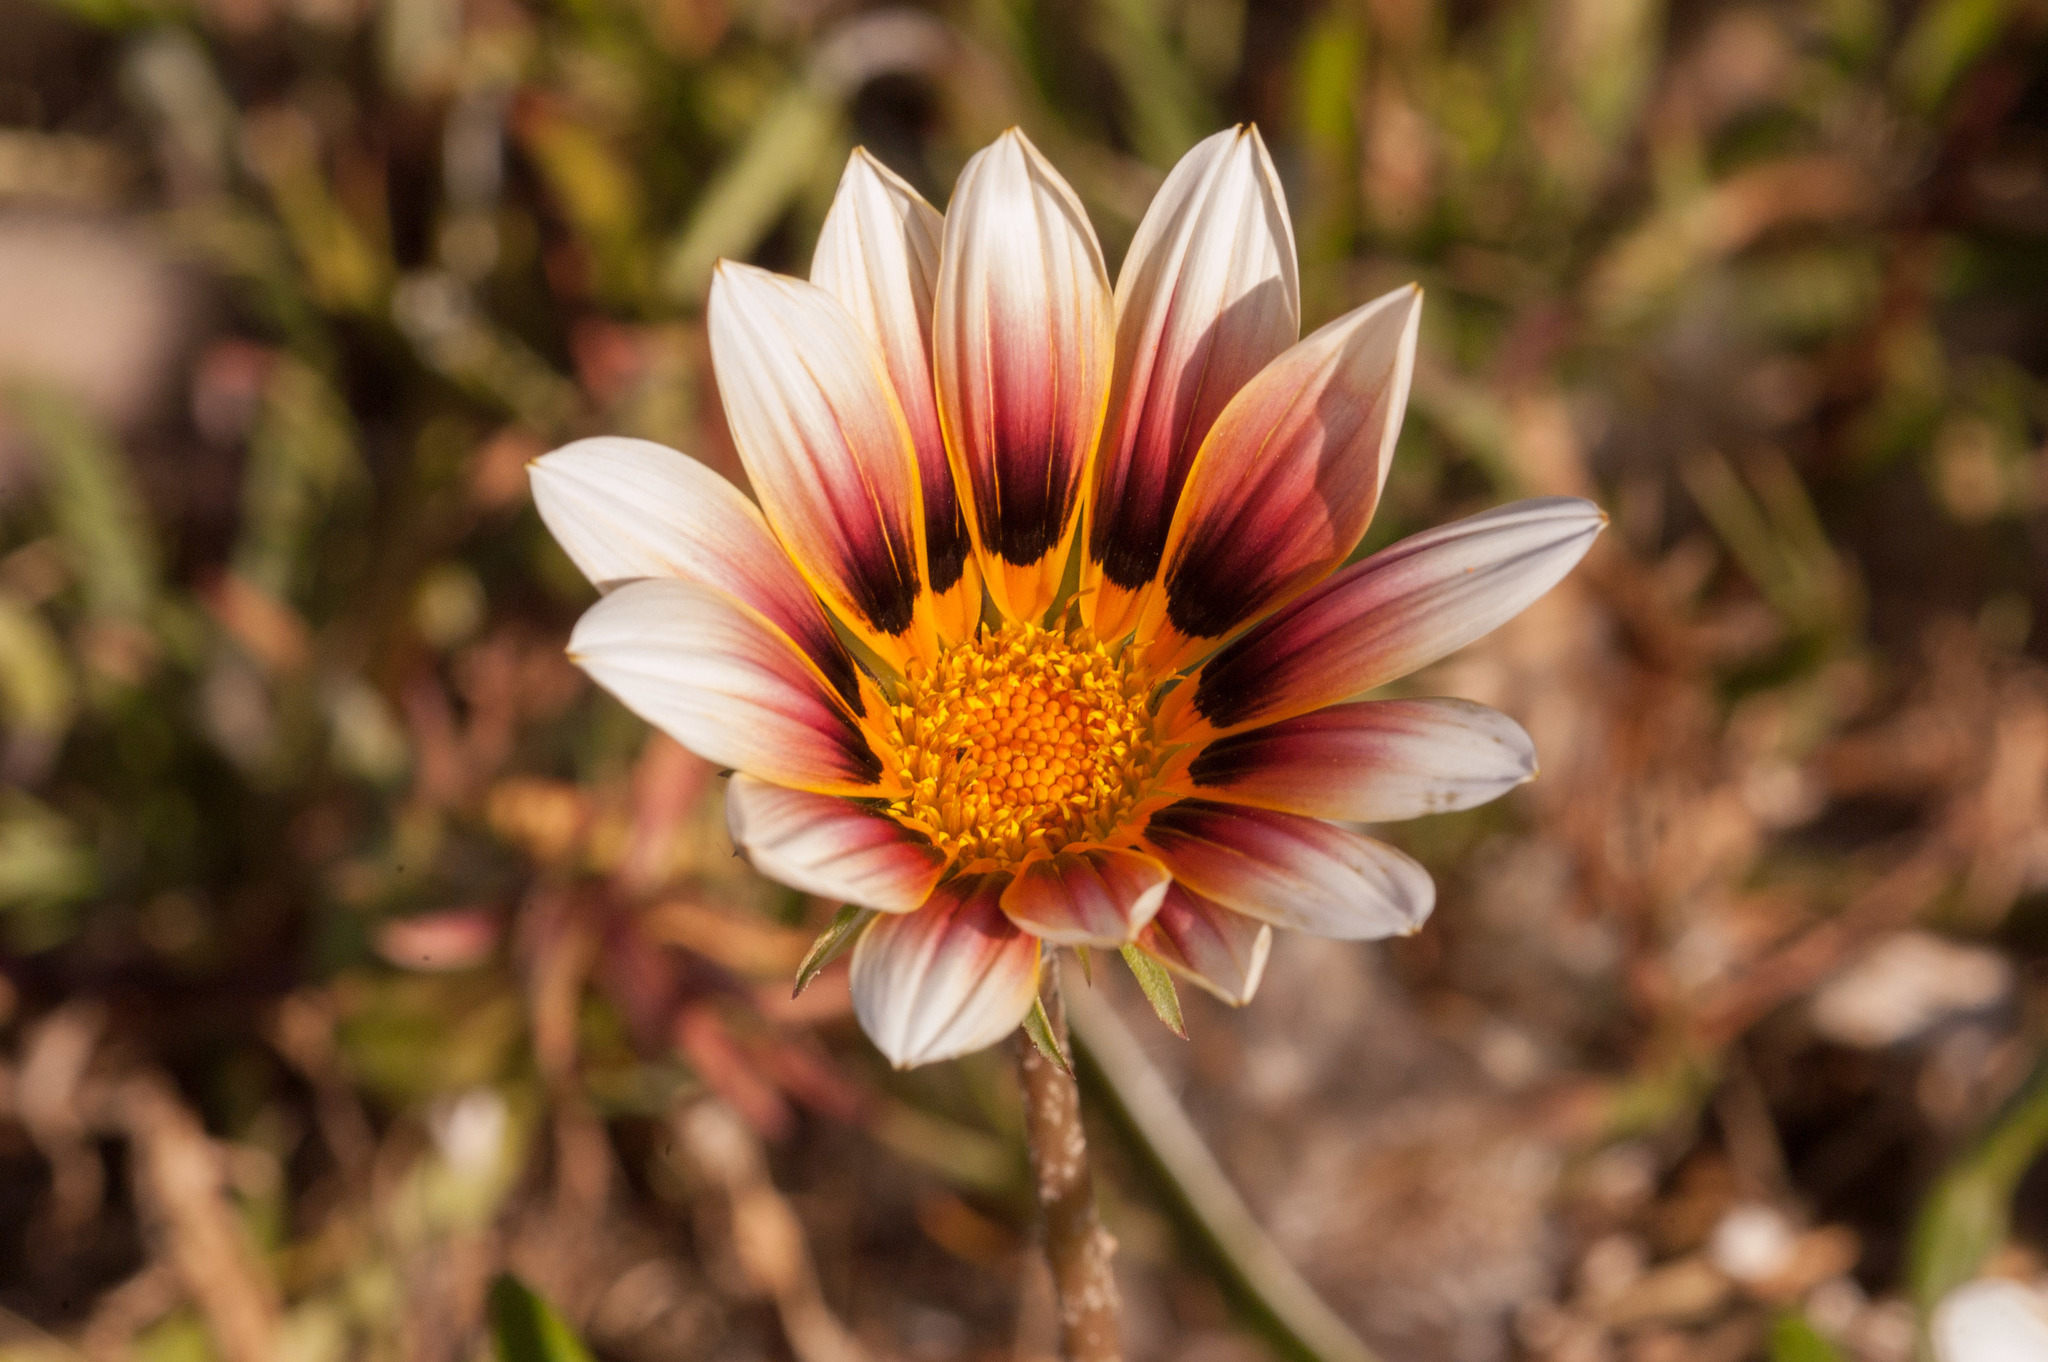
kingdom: Plantae
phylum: Tracheophyta
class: Magnoliopsida
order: Asterales
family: Asteraceae
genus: Gazania
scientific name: Gazania splendens
